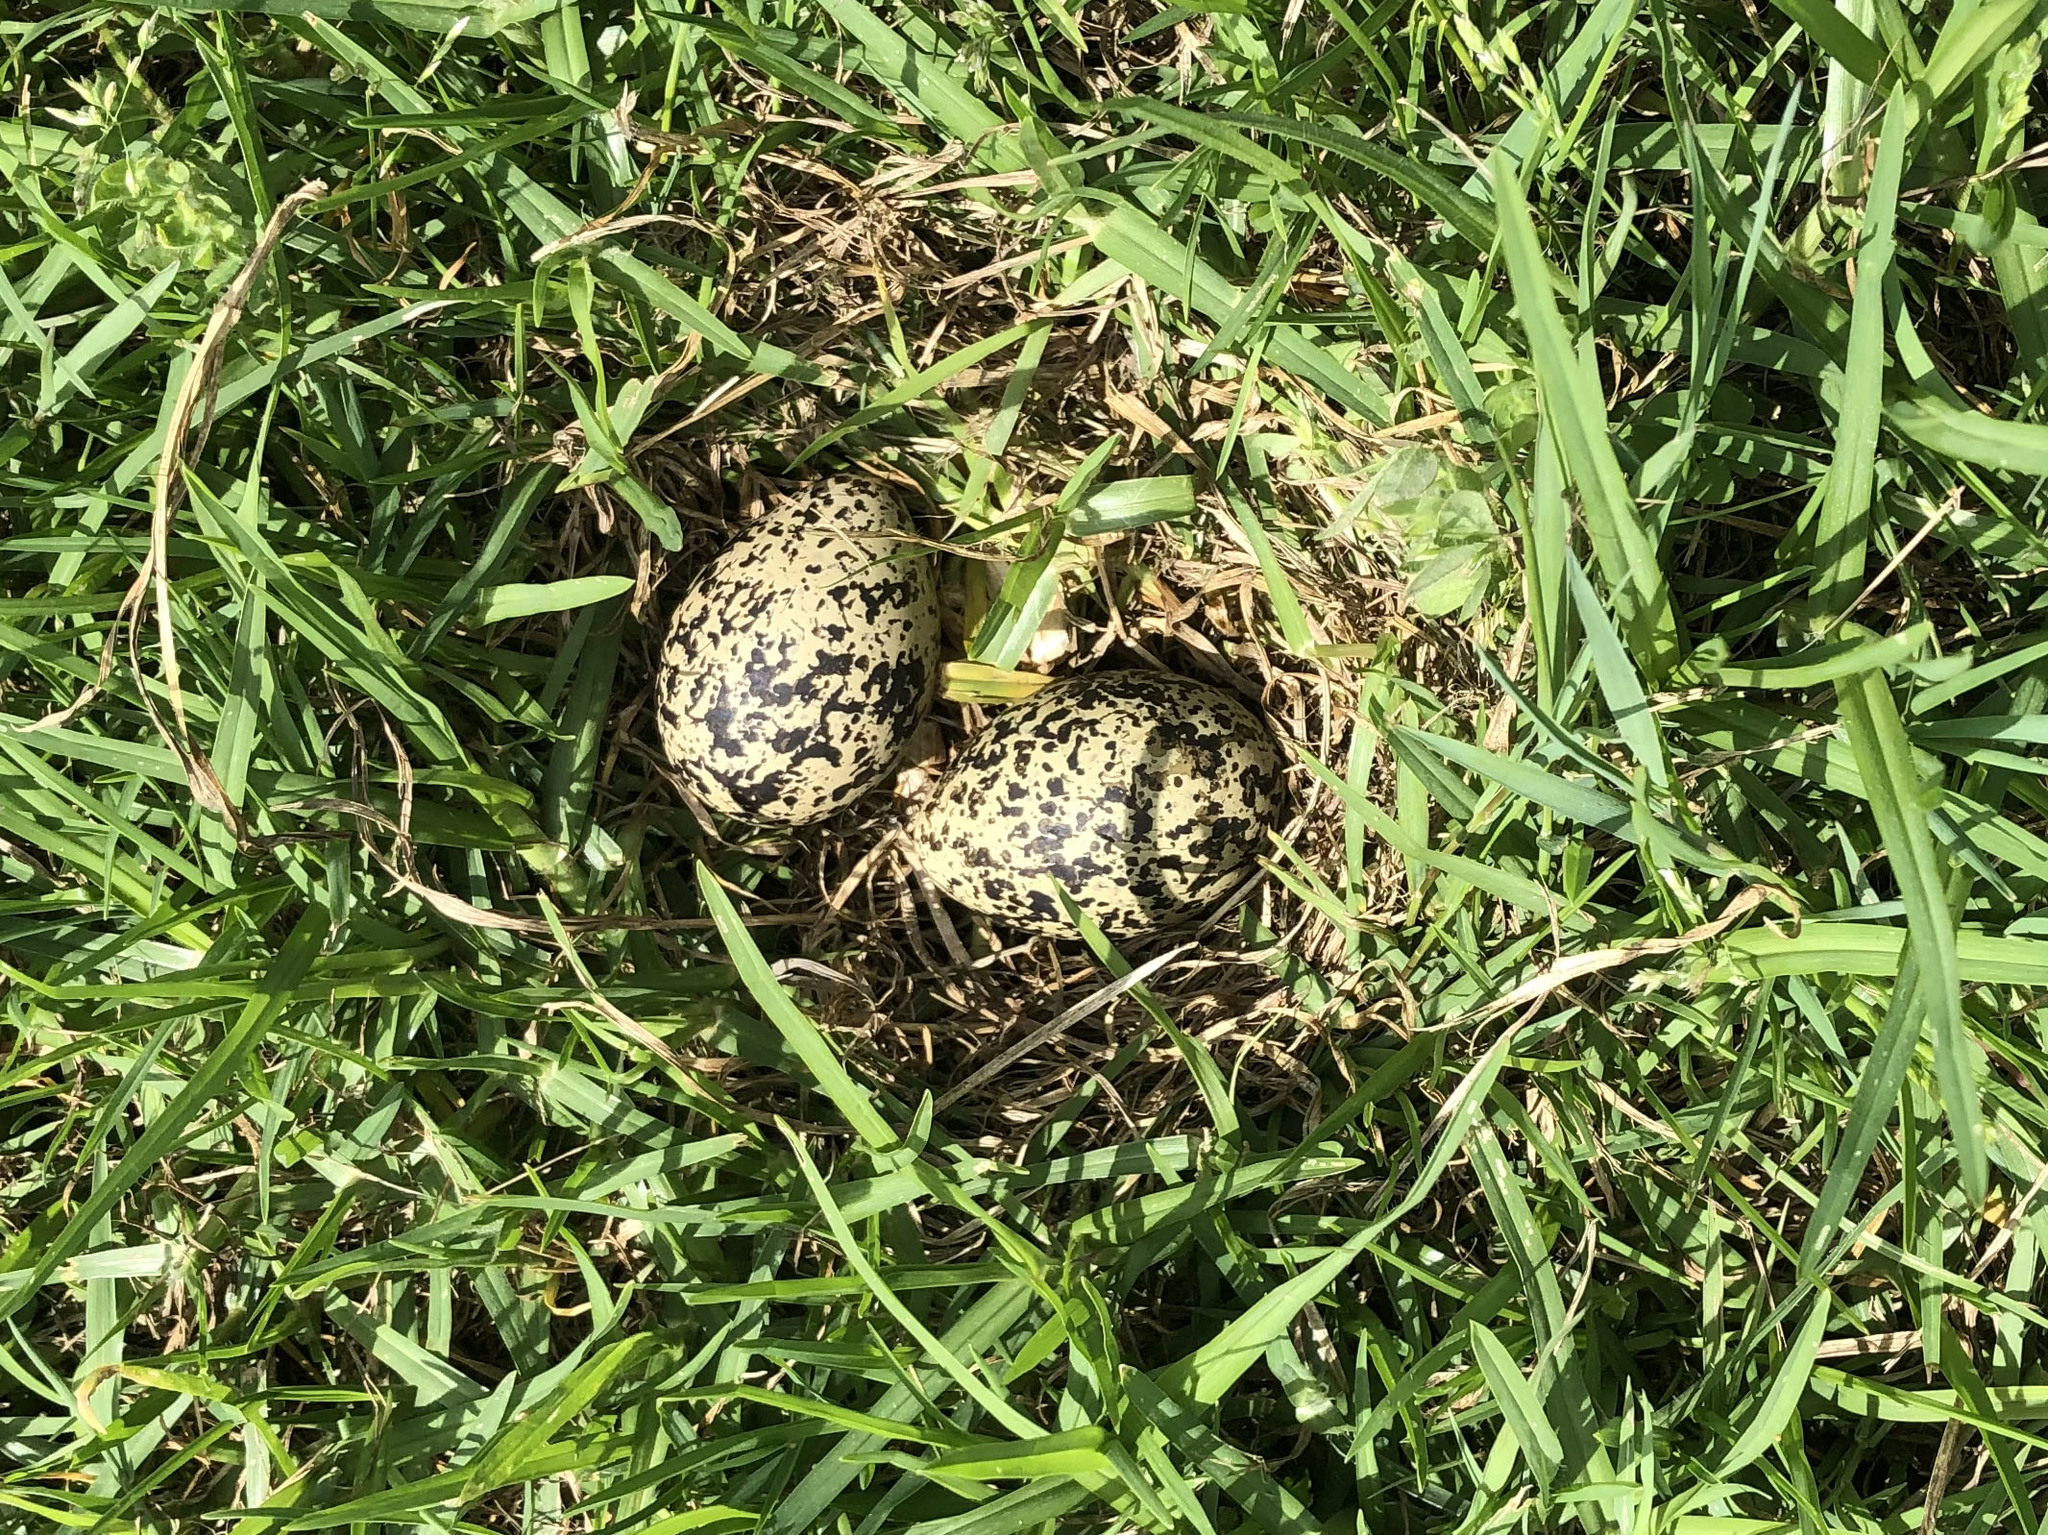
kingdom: Animalia
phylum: Chordata
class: Aves
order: Charadriiformes
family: Charadriidae
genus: Anarhynchus
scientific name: Anarhynchus
